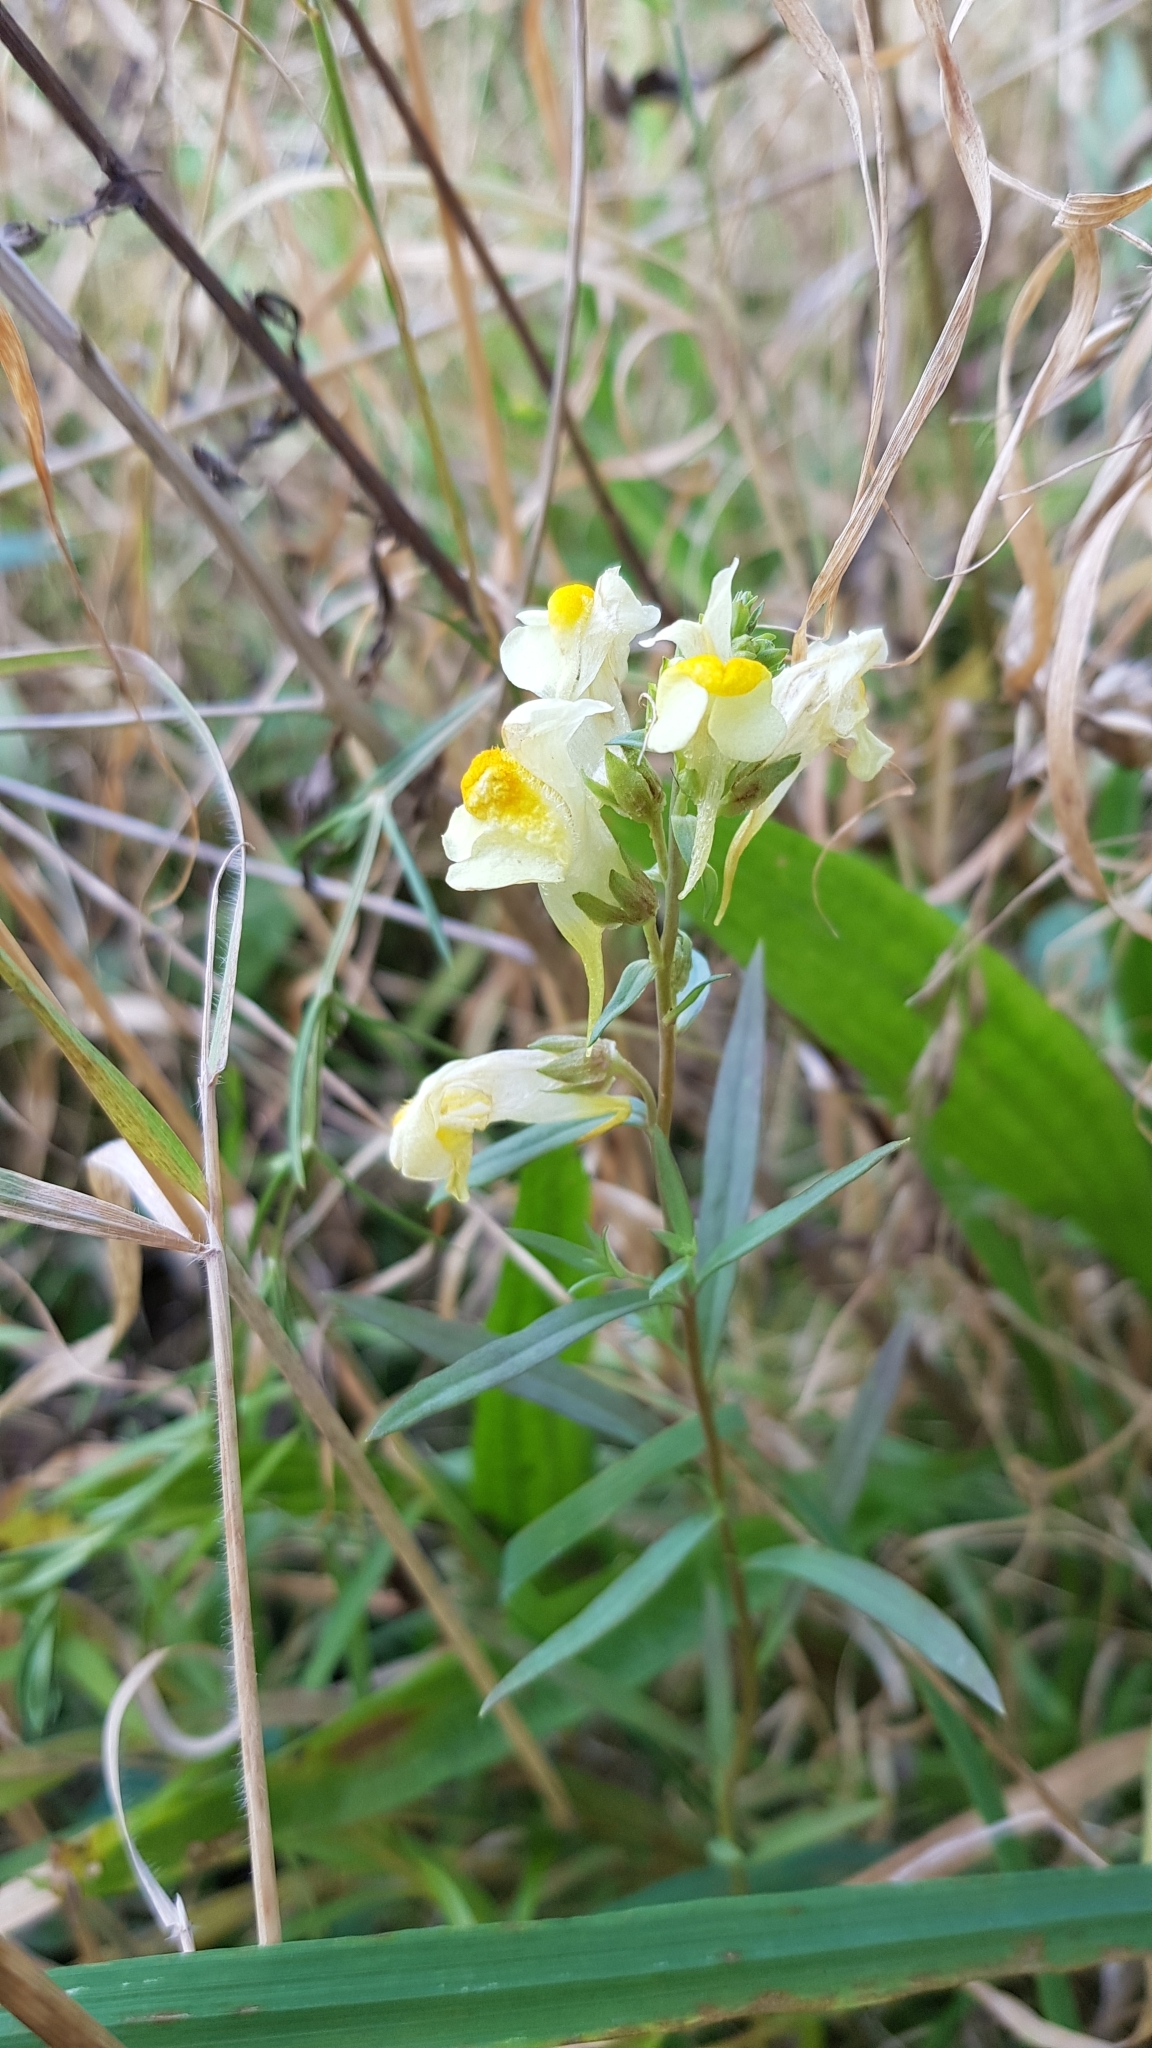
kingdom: Plantae
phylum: Tracheophyta
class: Magnoliopsida
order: Lamiales
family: Plantaginaceae
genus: Linaria
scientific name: Linaria vulgaris
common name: Butter and eggs
